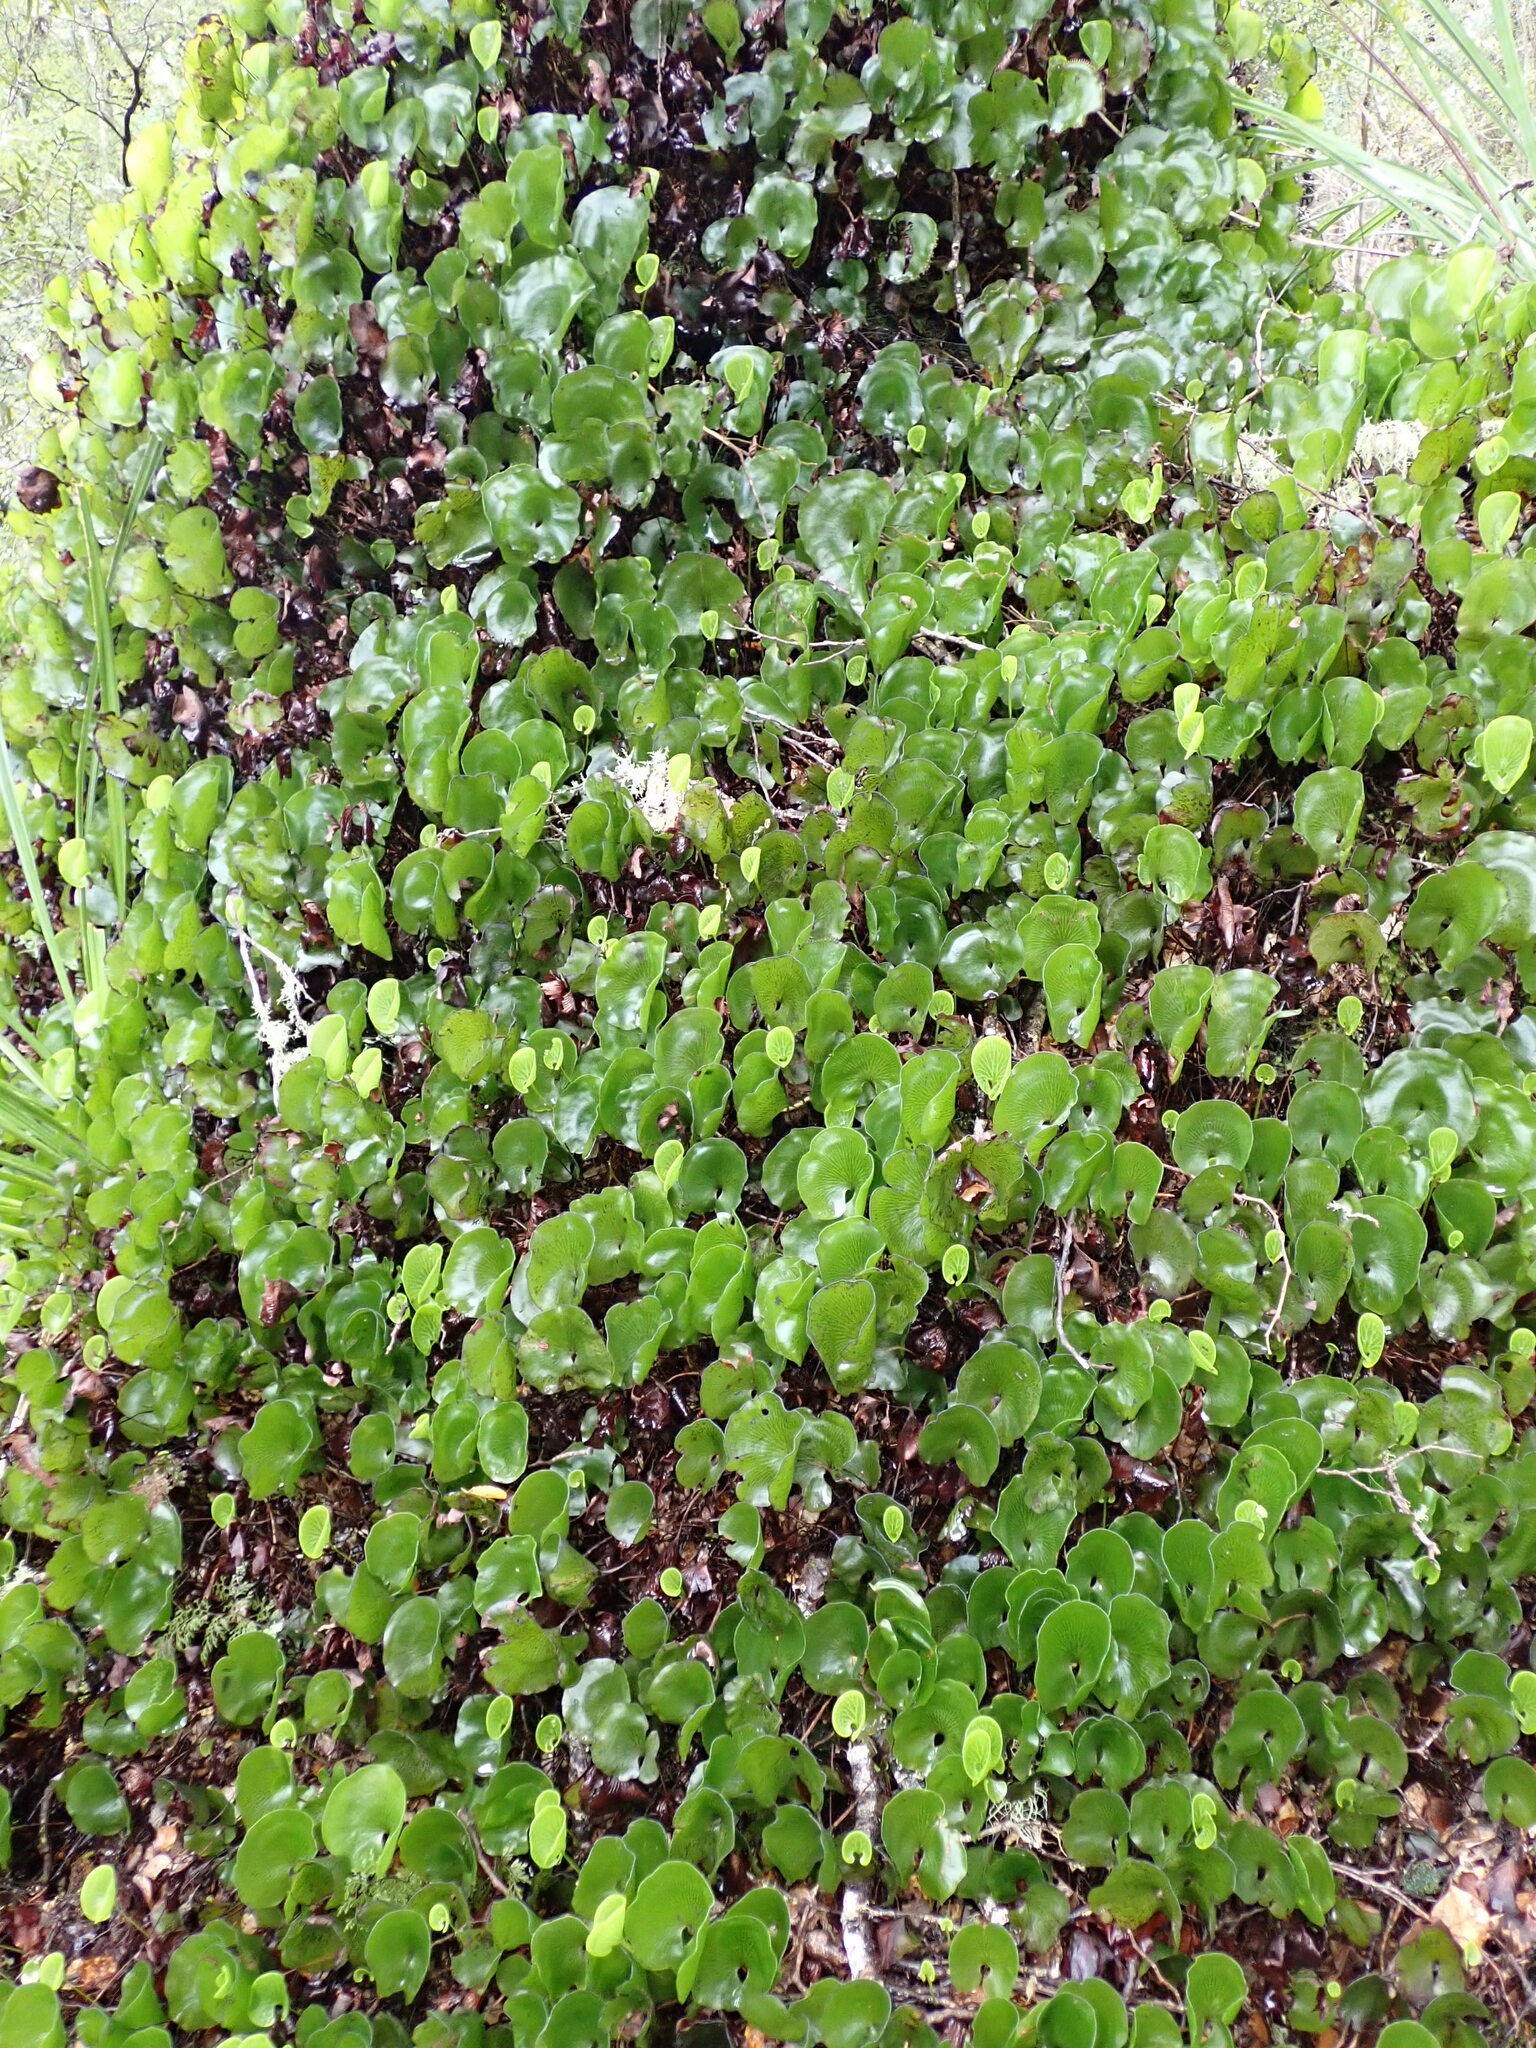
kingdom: Plantae
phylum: Tracheophyta
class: Polypodiopsida
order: Hymenophyllales
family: Hymenophyllaceae
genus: Hymenophyllum
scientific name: Hymenophyllum nephrophyllum
